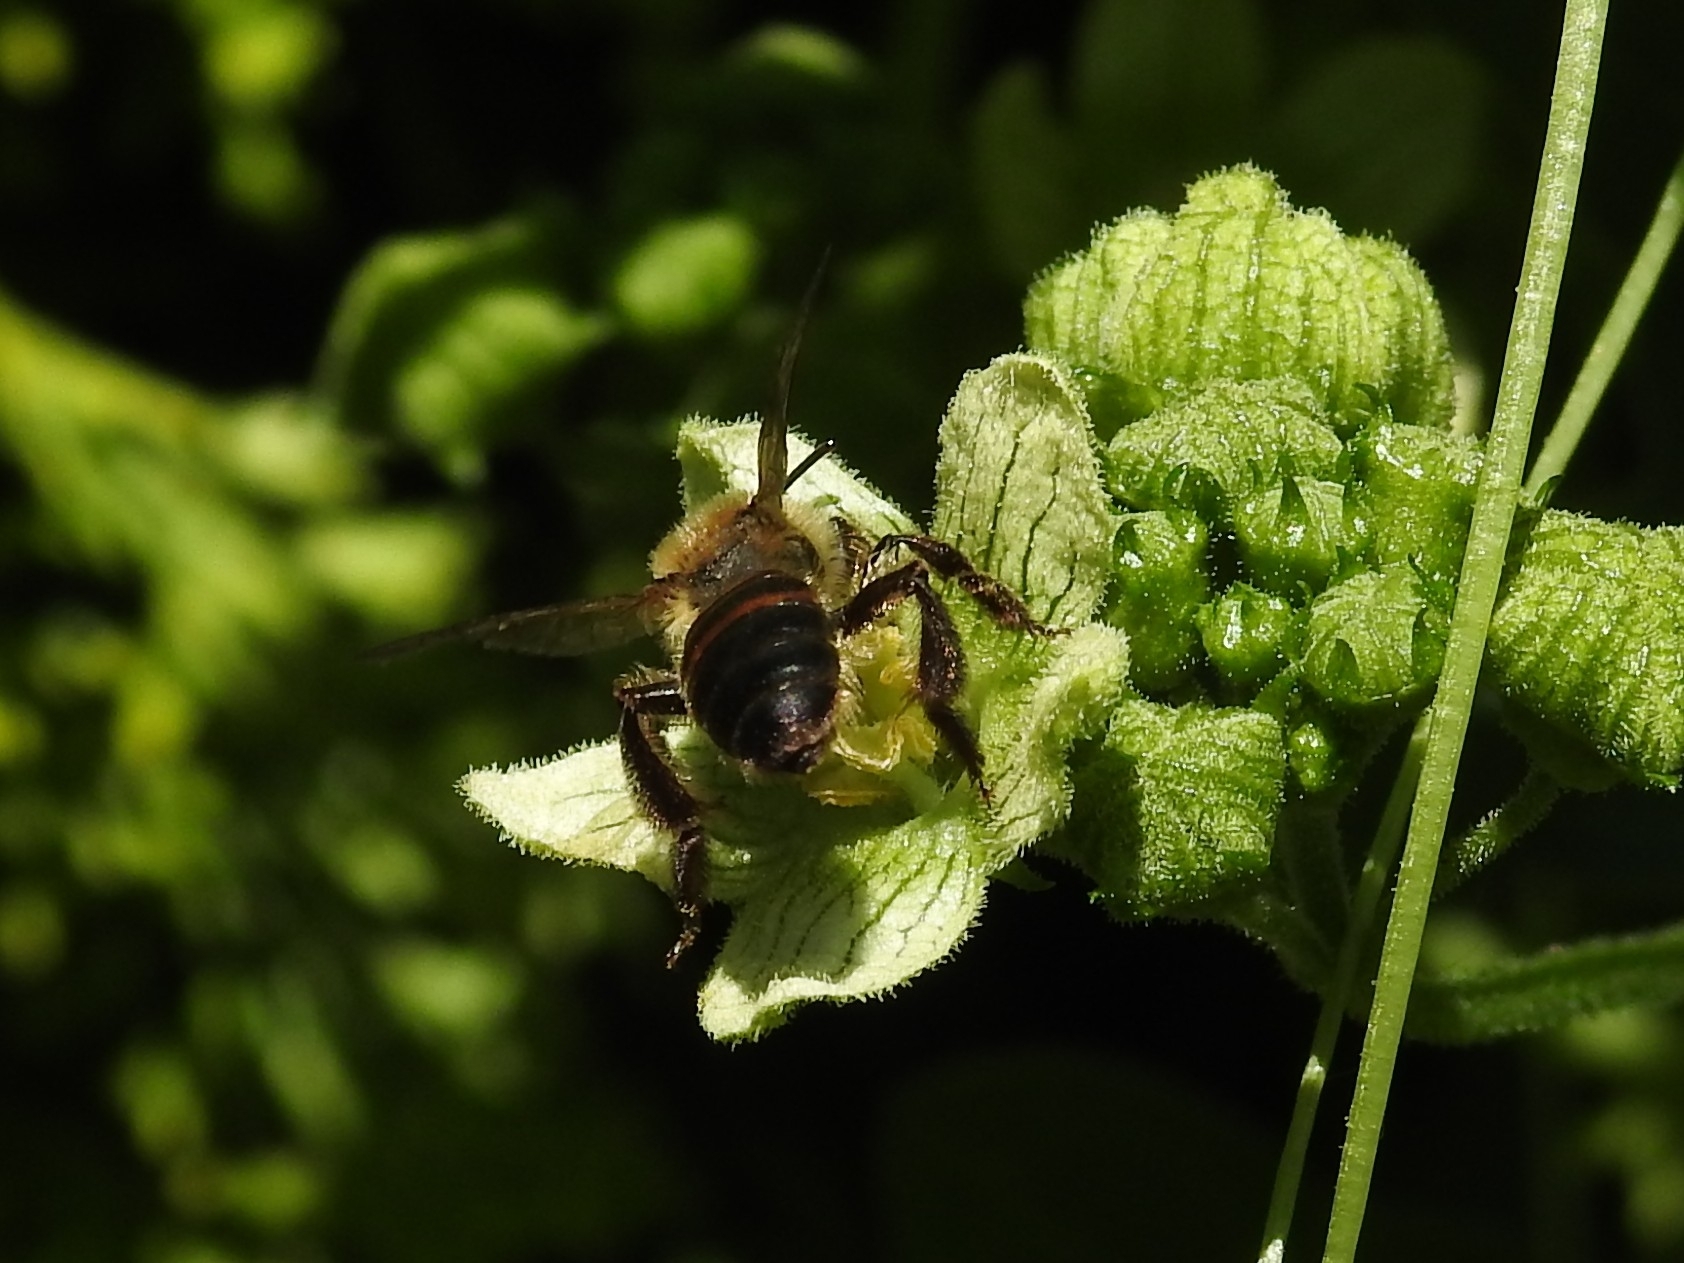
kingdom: Animalia
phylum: Arthropoda
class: Insecta
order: Hymenoptera
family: Andrenidae
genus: Andrena
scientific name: Andrena florea
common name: Bryony mining bee
